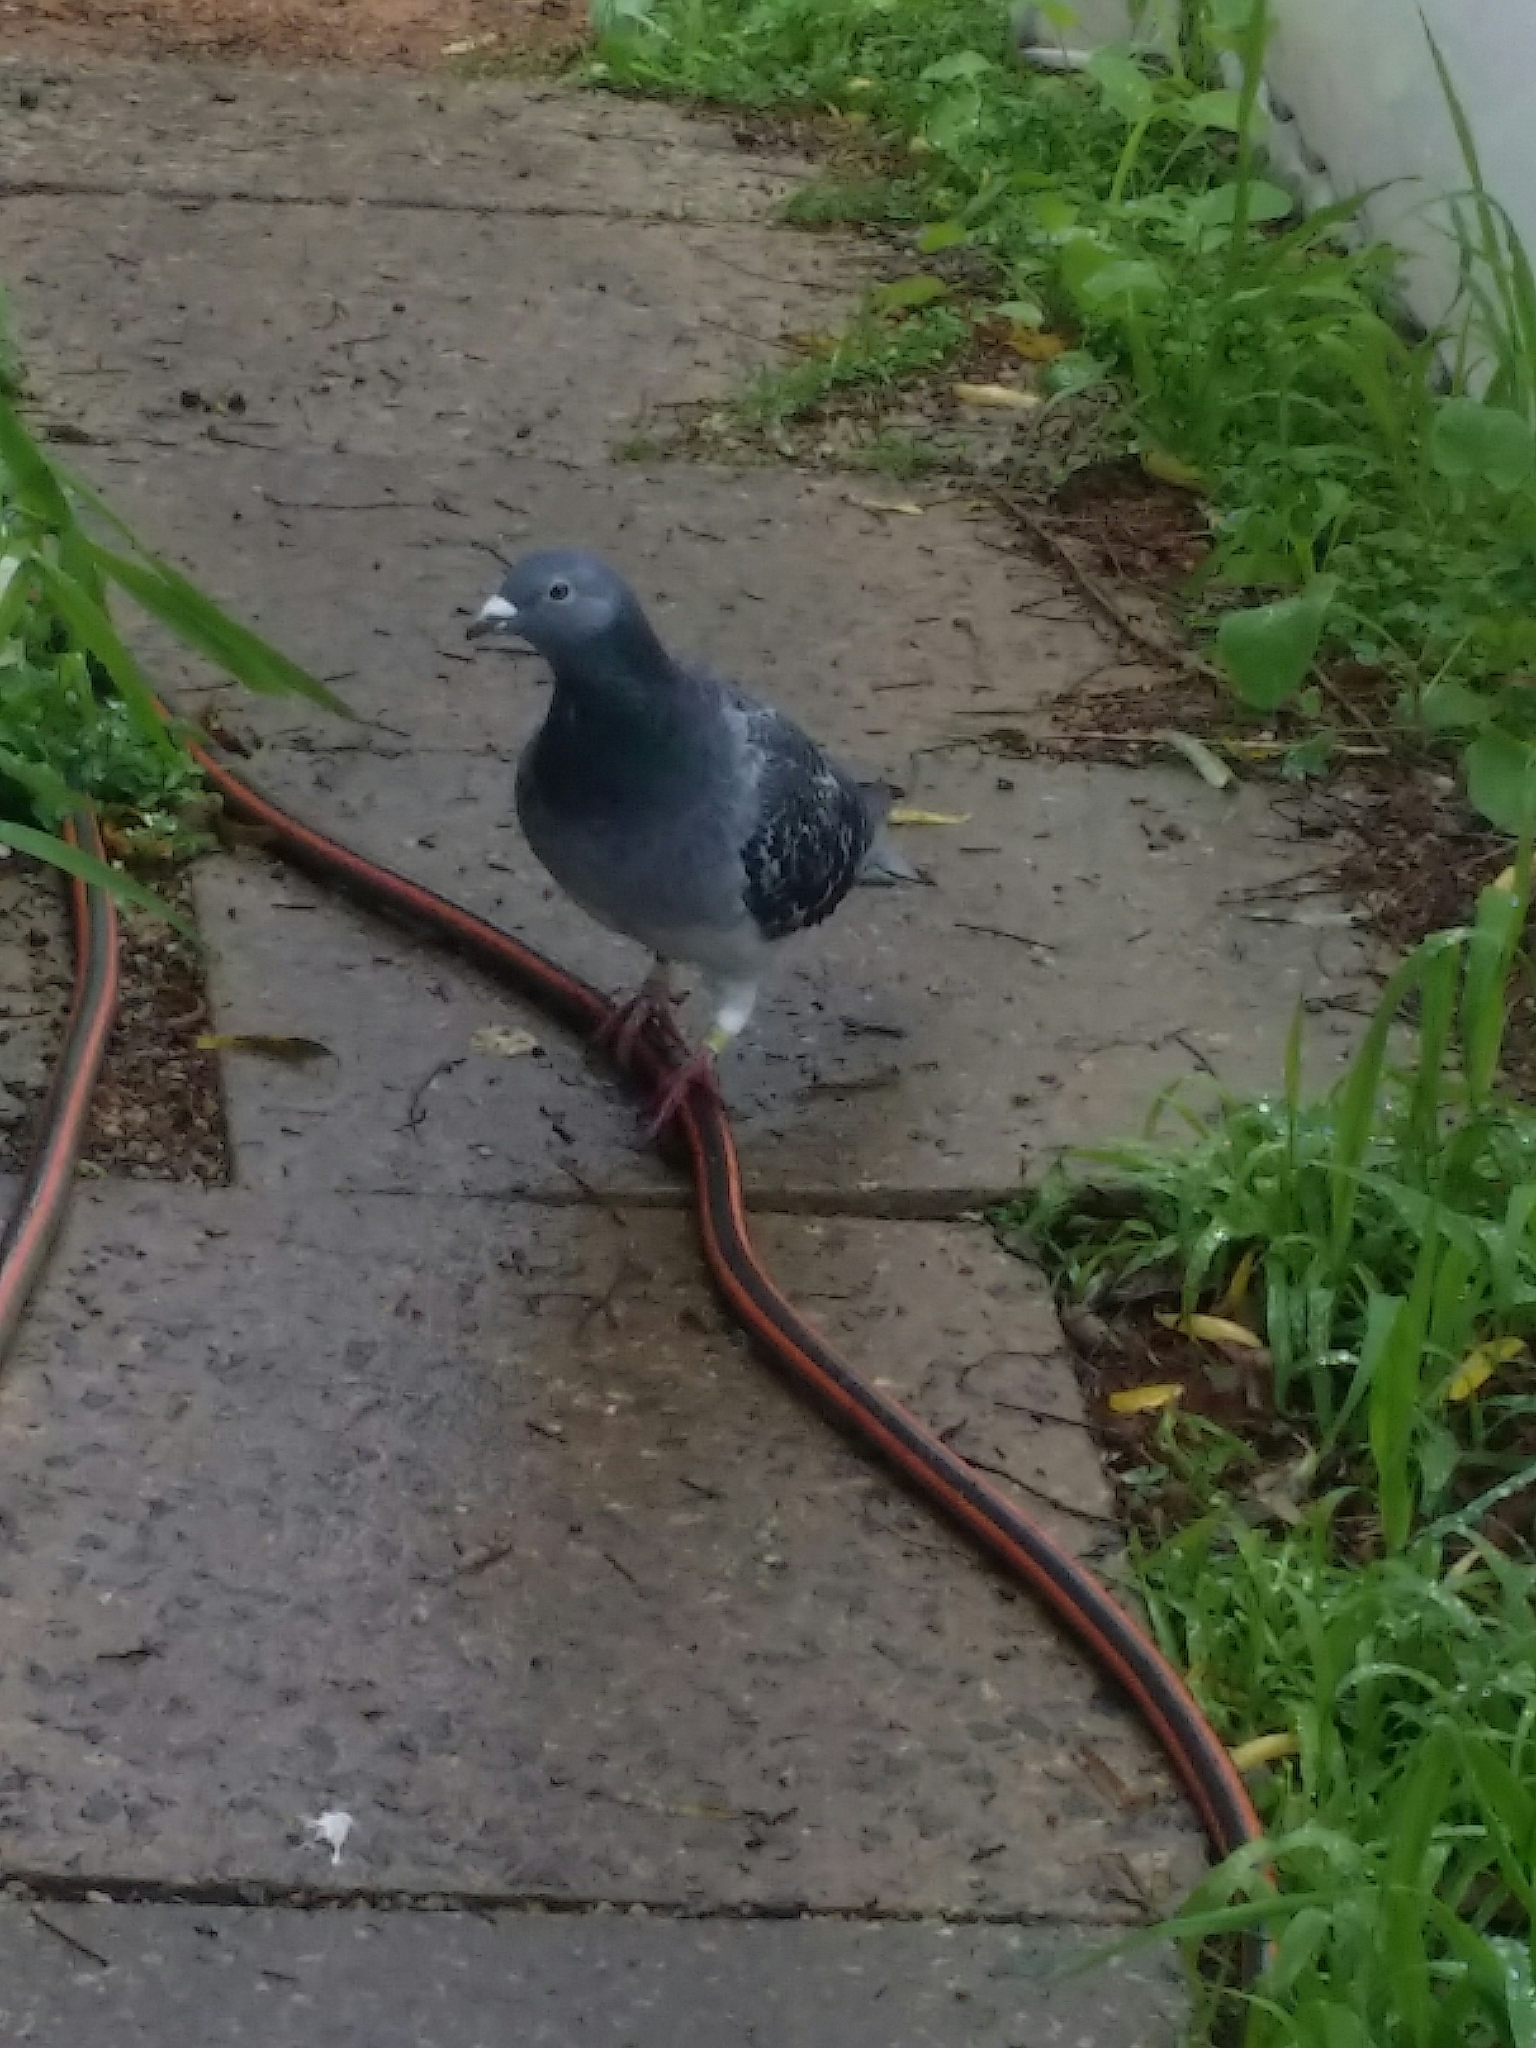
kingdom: Animalia
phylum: Chordata
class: Aves
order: Columbiformes
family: Columbidae
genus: Columba
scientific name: Columba livia
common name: Rock pigeon
